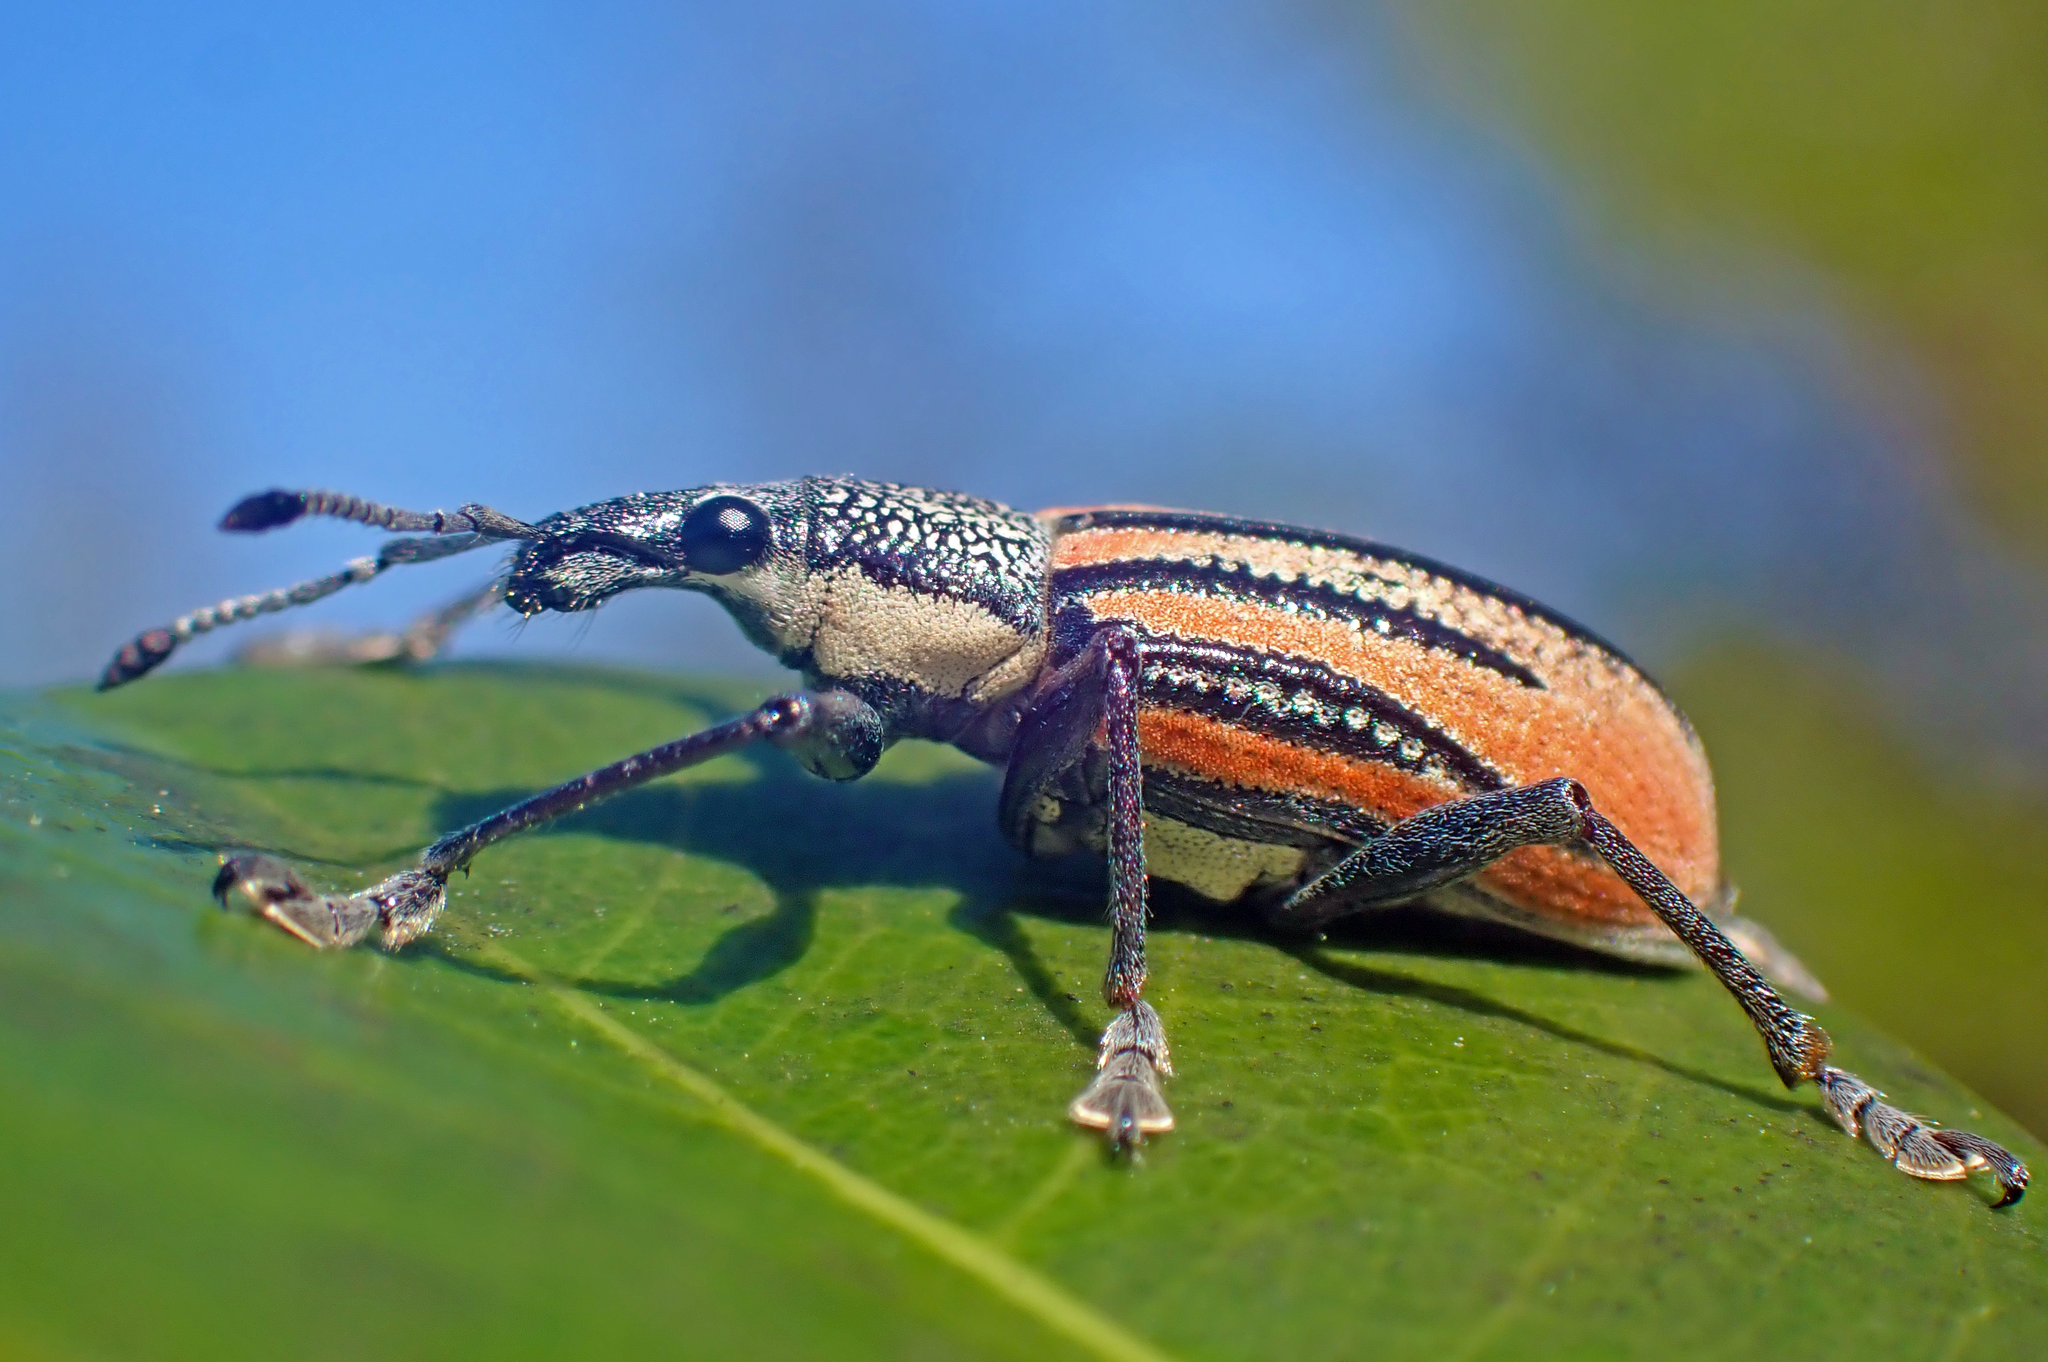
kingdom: Animalia
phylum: Arthropoda
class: Insecta
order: Coleoptera
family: Curculionidae
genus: Diaprepes
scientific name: Diaprepes abbreviatus
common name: Root weevil
